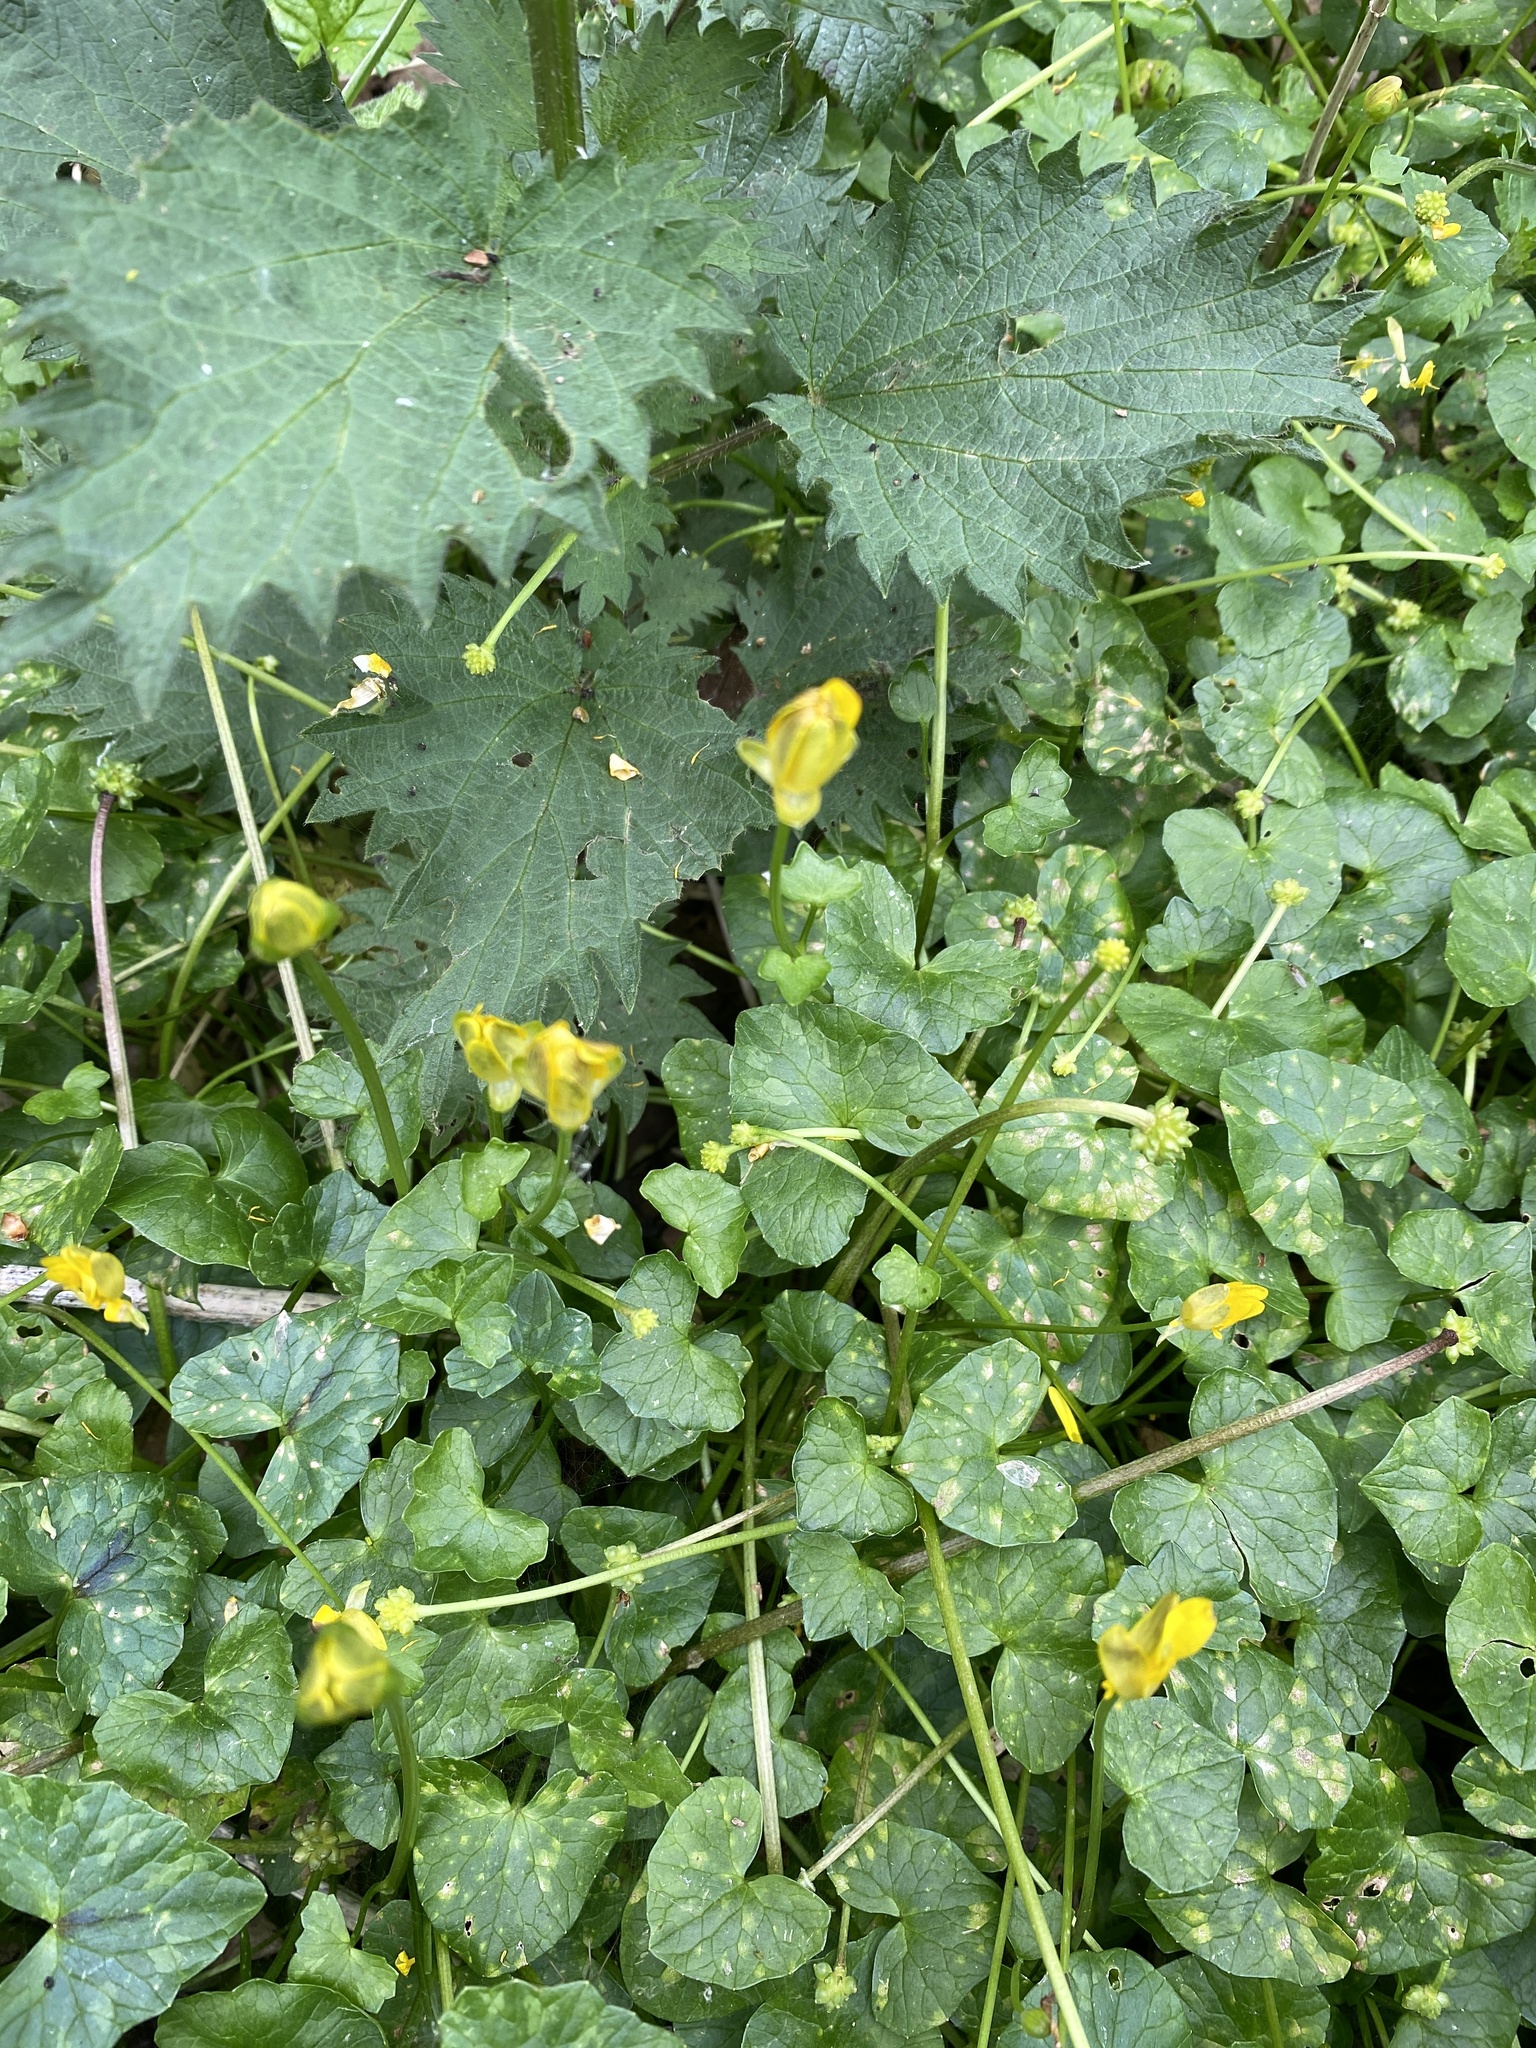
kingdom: Plantae
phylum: Tracheophyta
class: Magnoliopsida
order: Ranunculales
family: Ranunculaceae
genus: Ficaria
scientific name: Ficaria verna
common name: Lesser celandine
